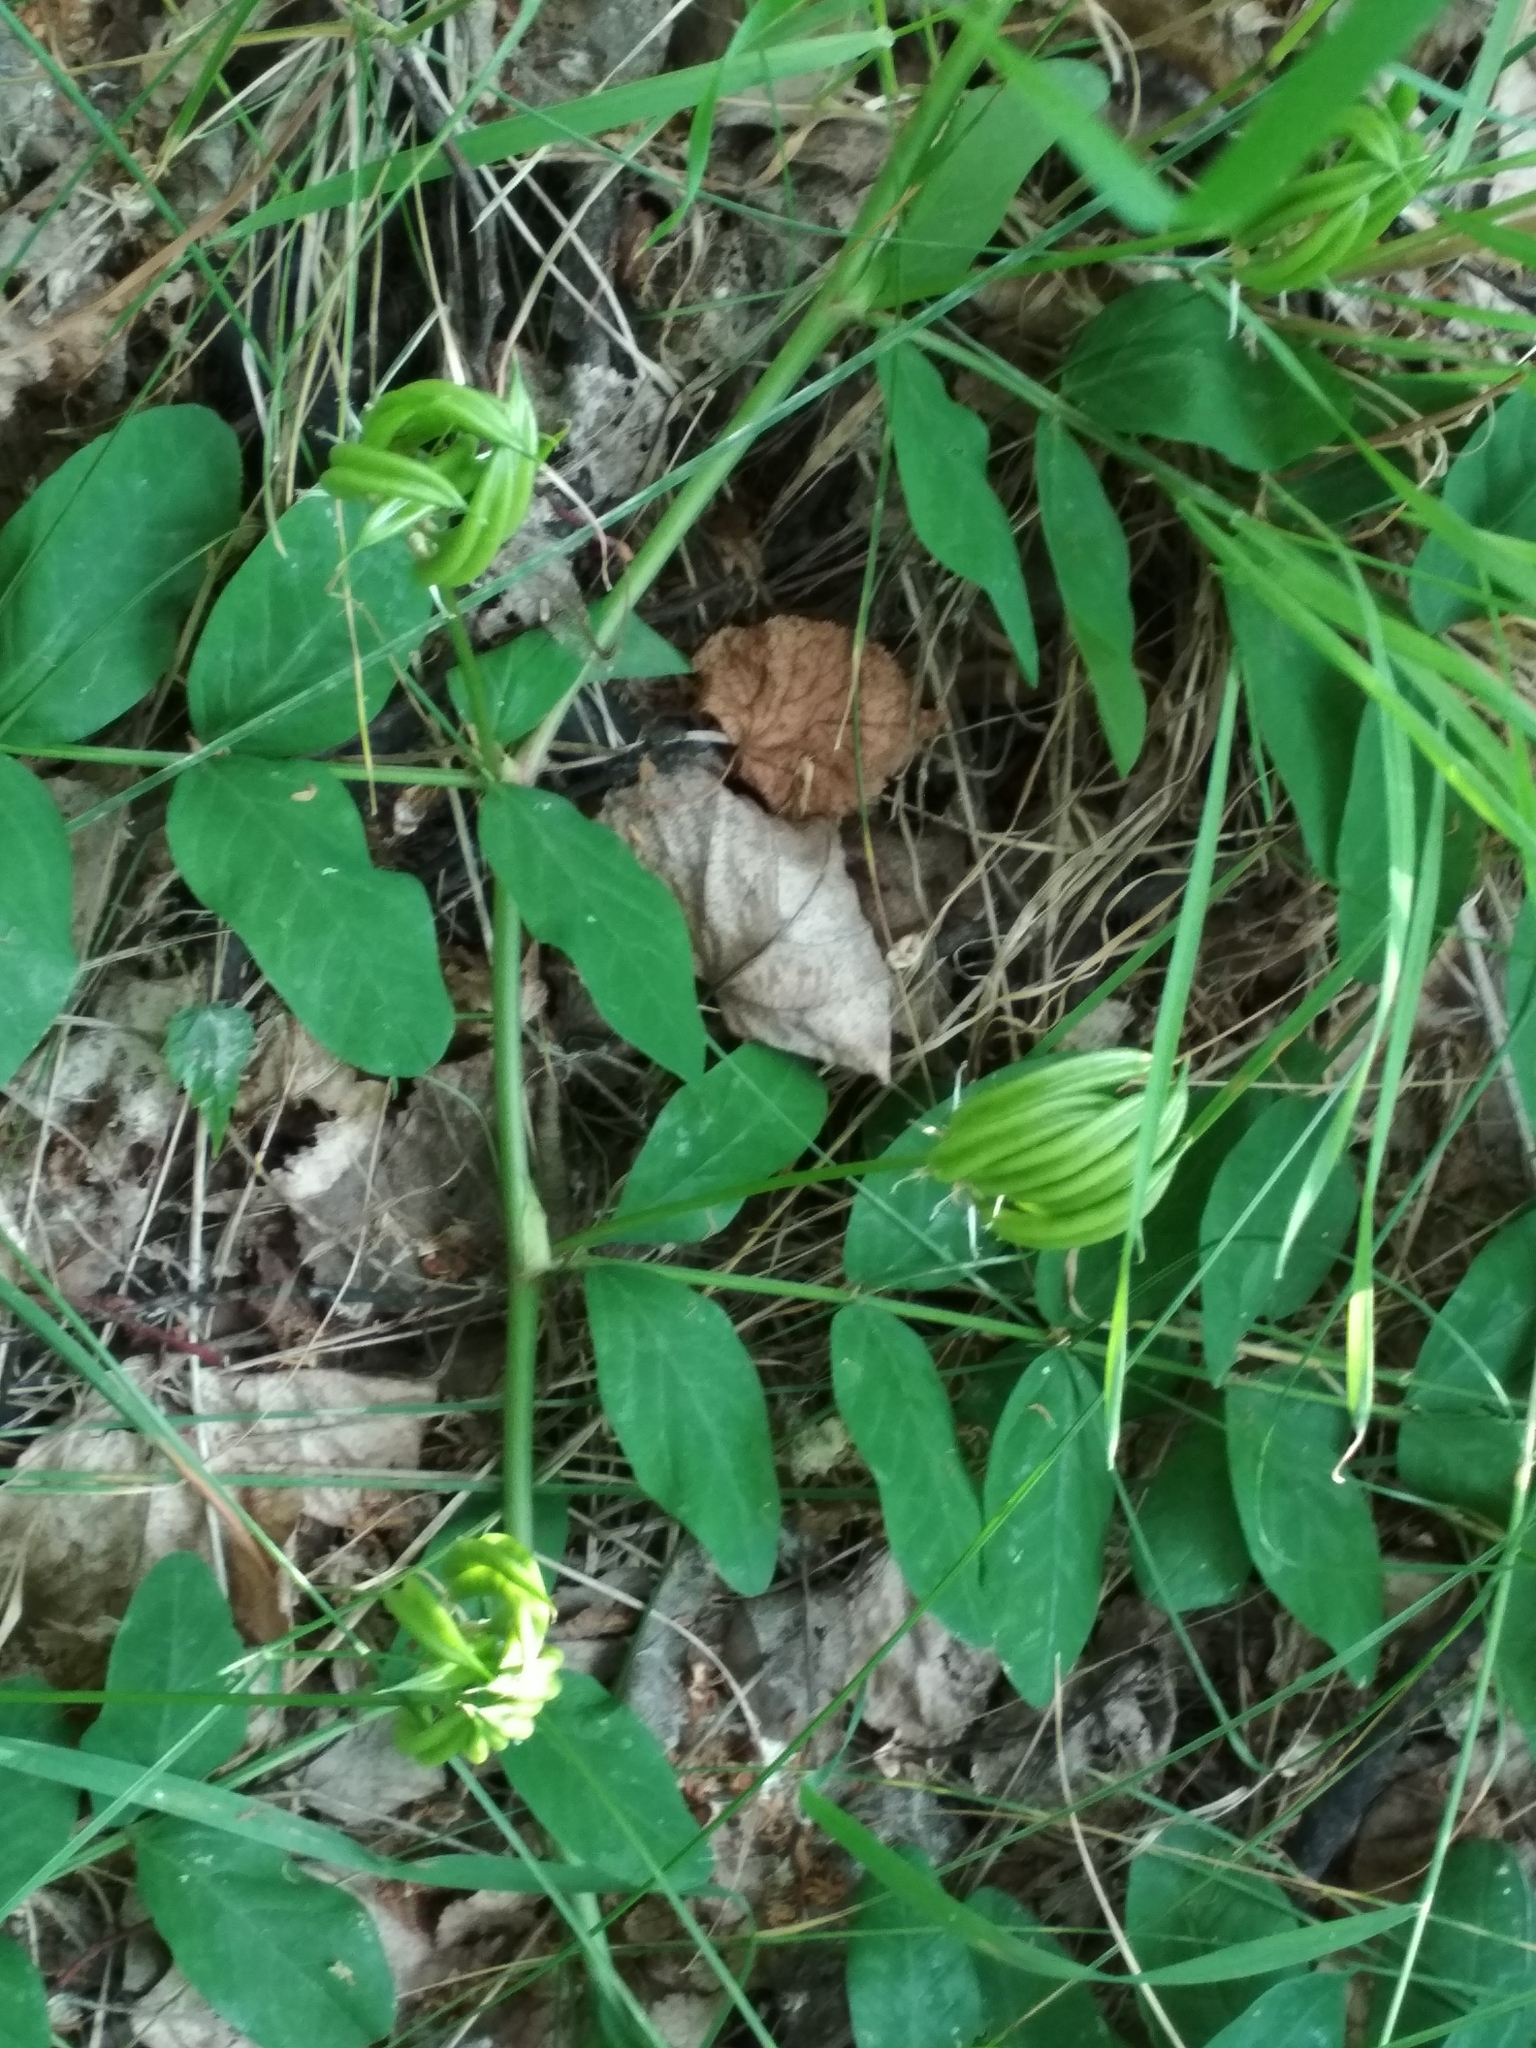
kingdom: Plantae
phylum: Tracheophyta
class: Magnoliopsida
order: Fabales
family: Fabaceae
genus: Astragalus
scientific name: Astragalus glycyphyllos
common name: Wild liquorice
